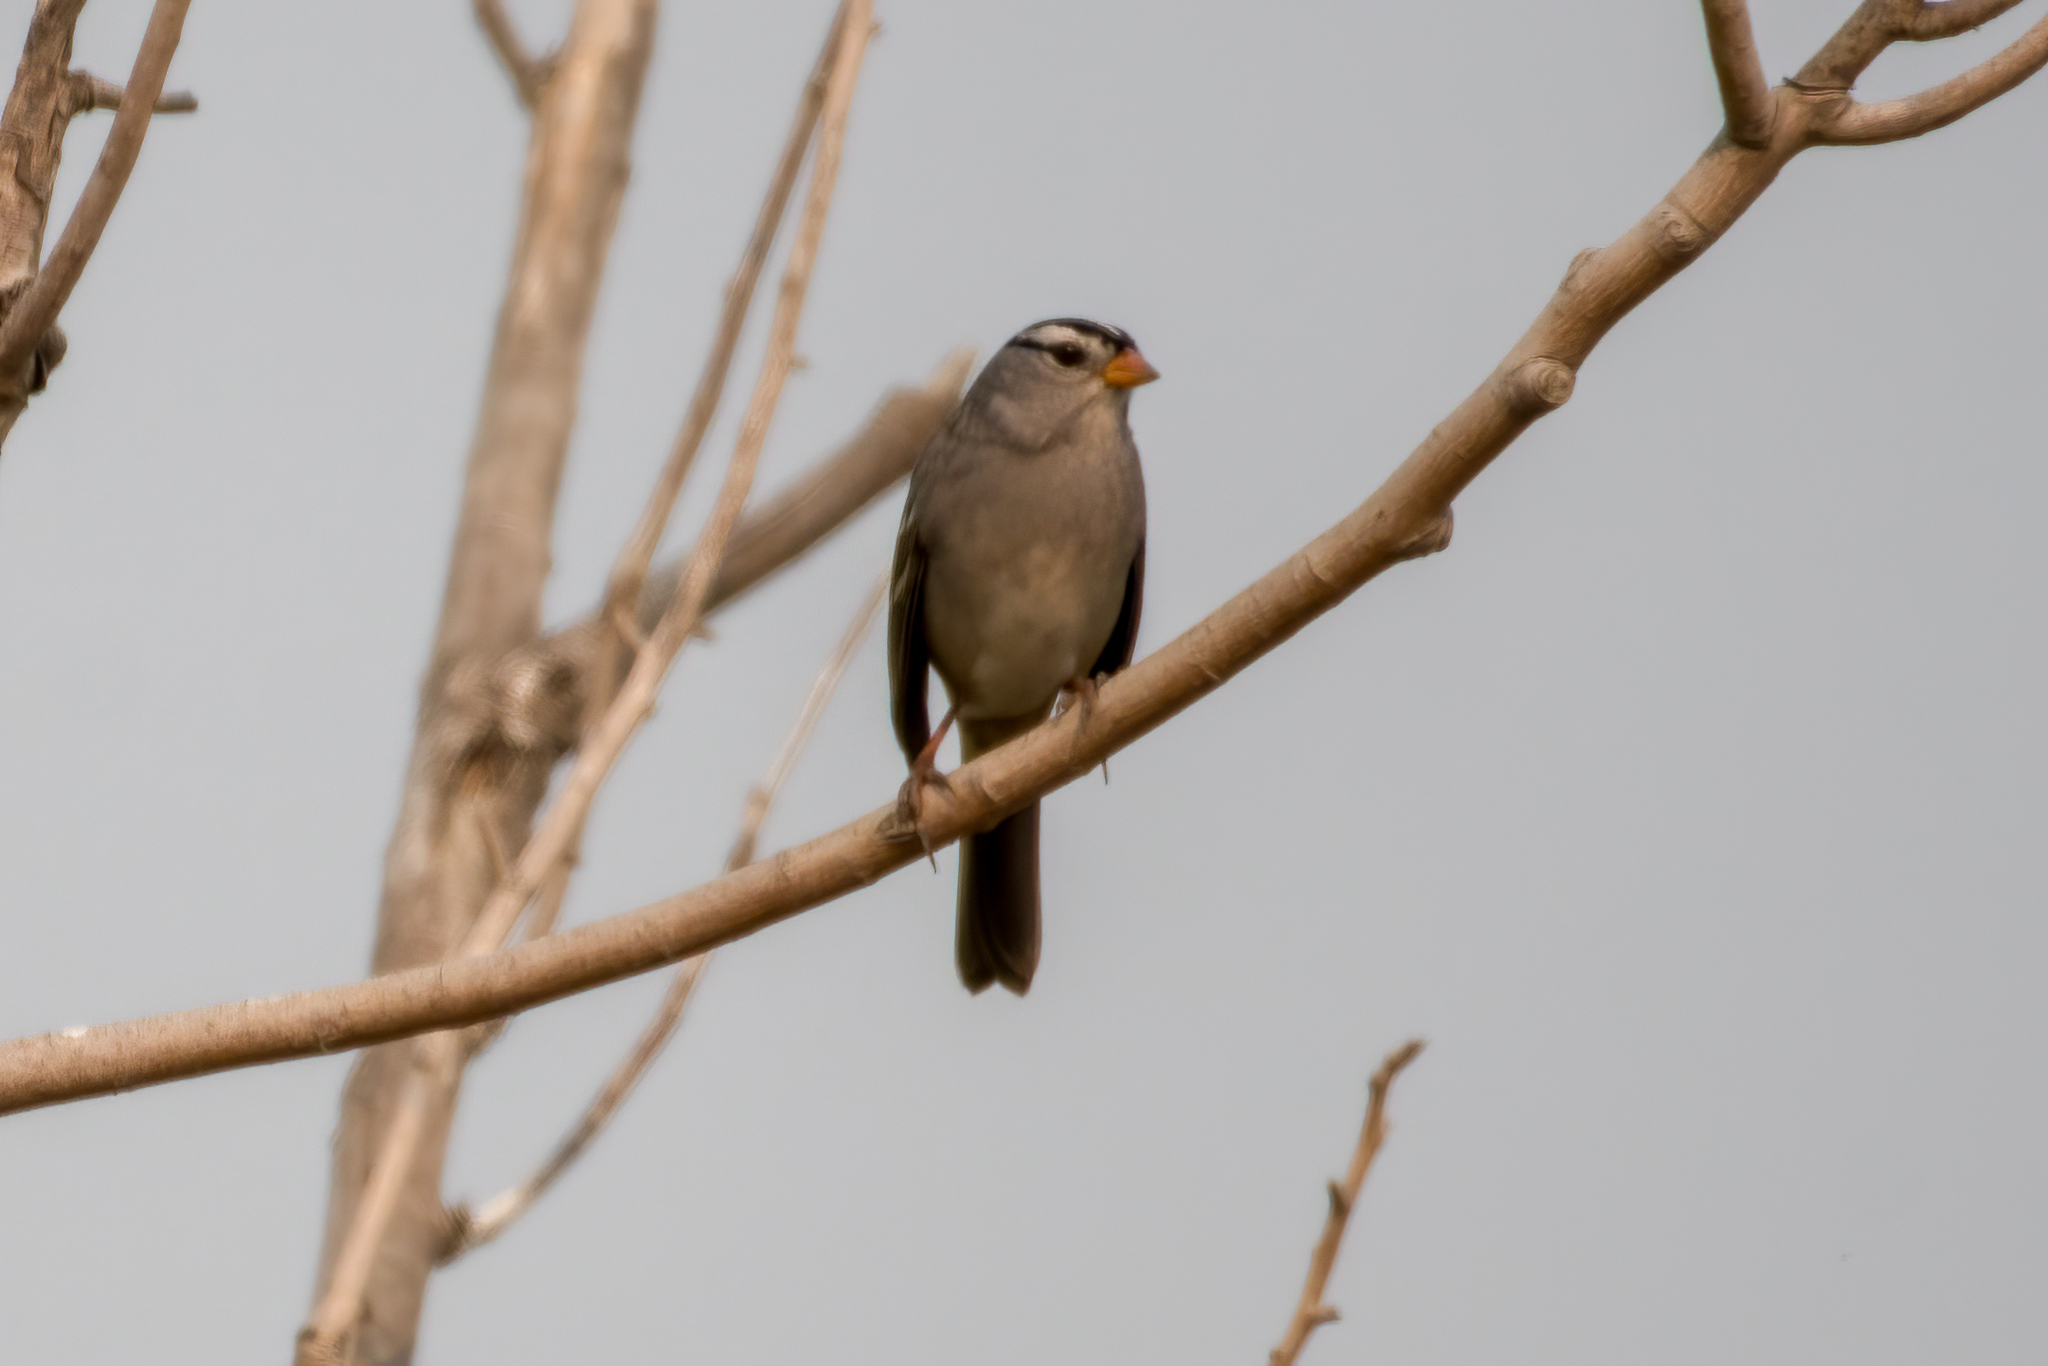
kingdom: Animalia
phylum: Chordata
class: Aves
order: Passeriformes
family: Passerellidae
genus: Zonotrichia
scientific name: Zonotrichia leucophrys
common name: White-crowned sparrow
